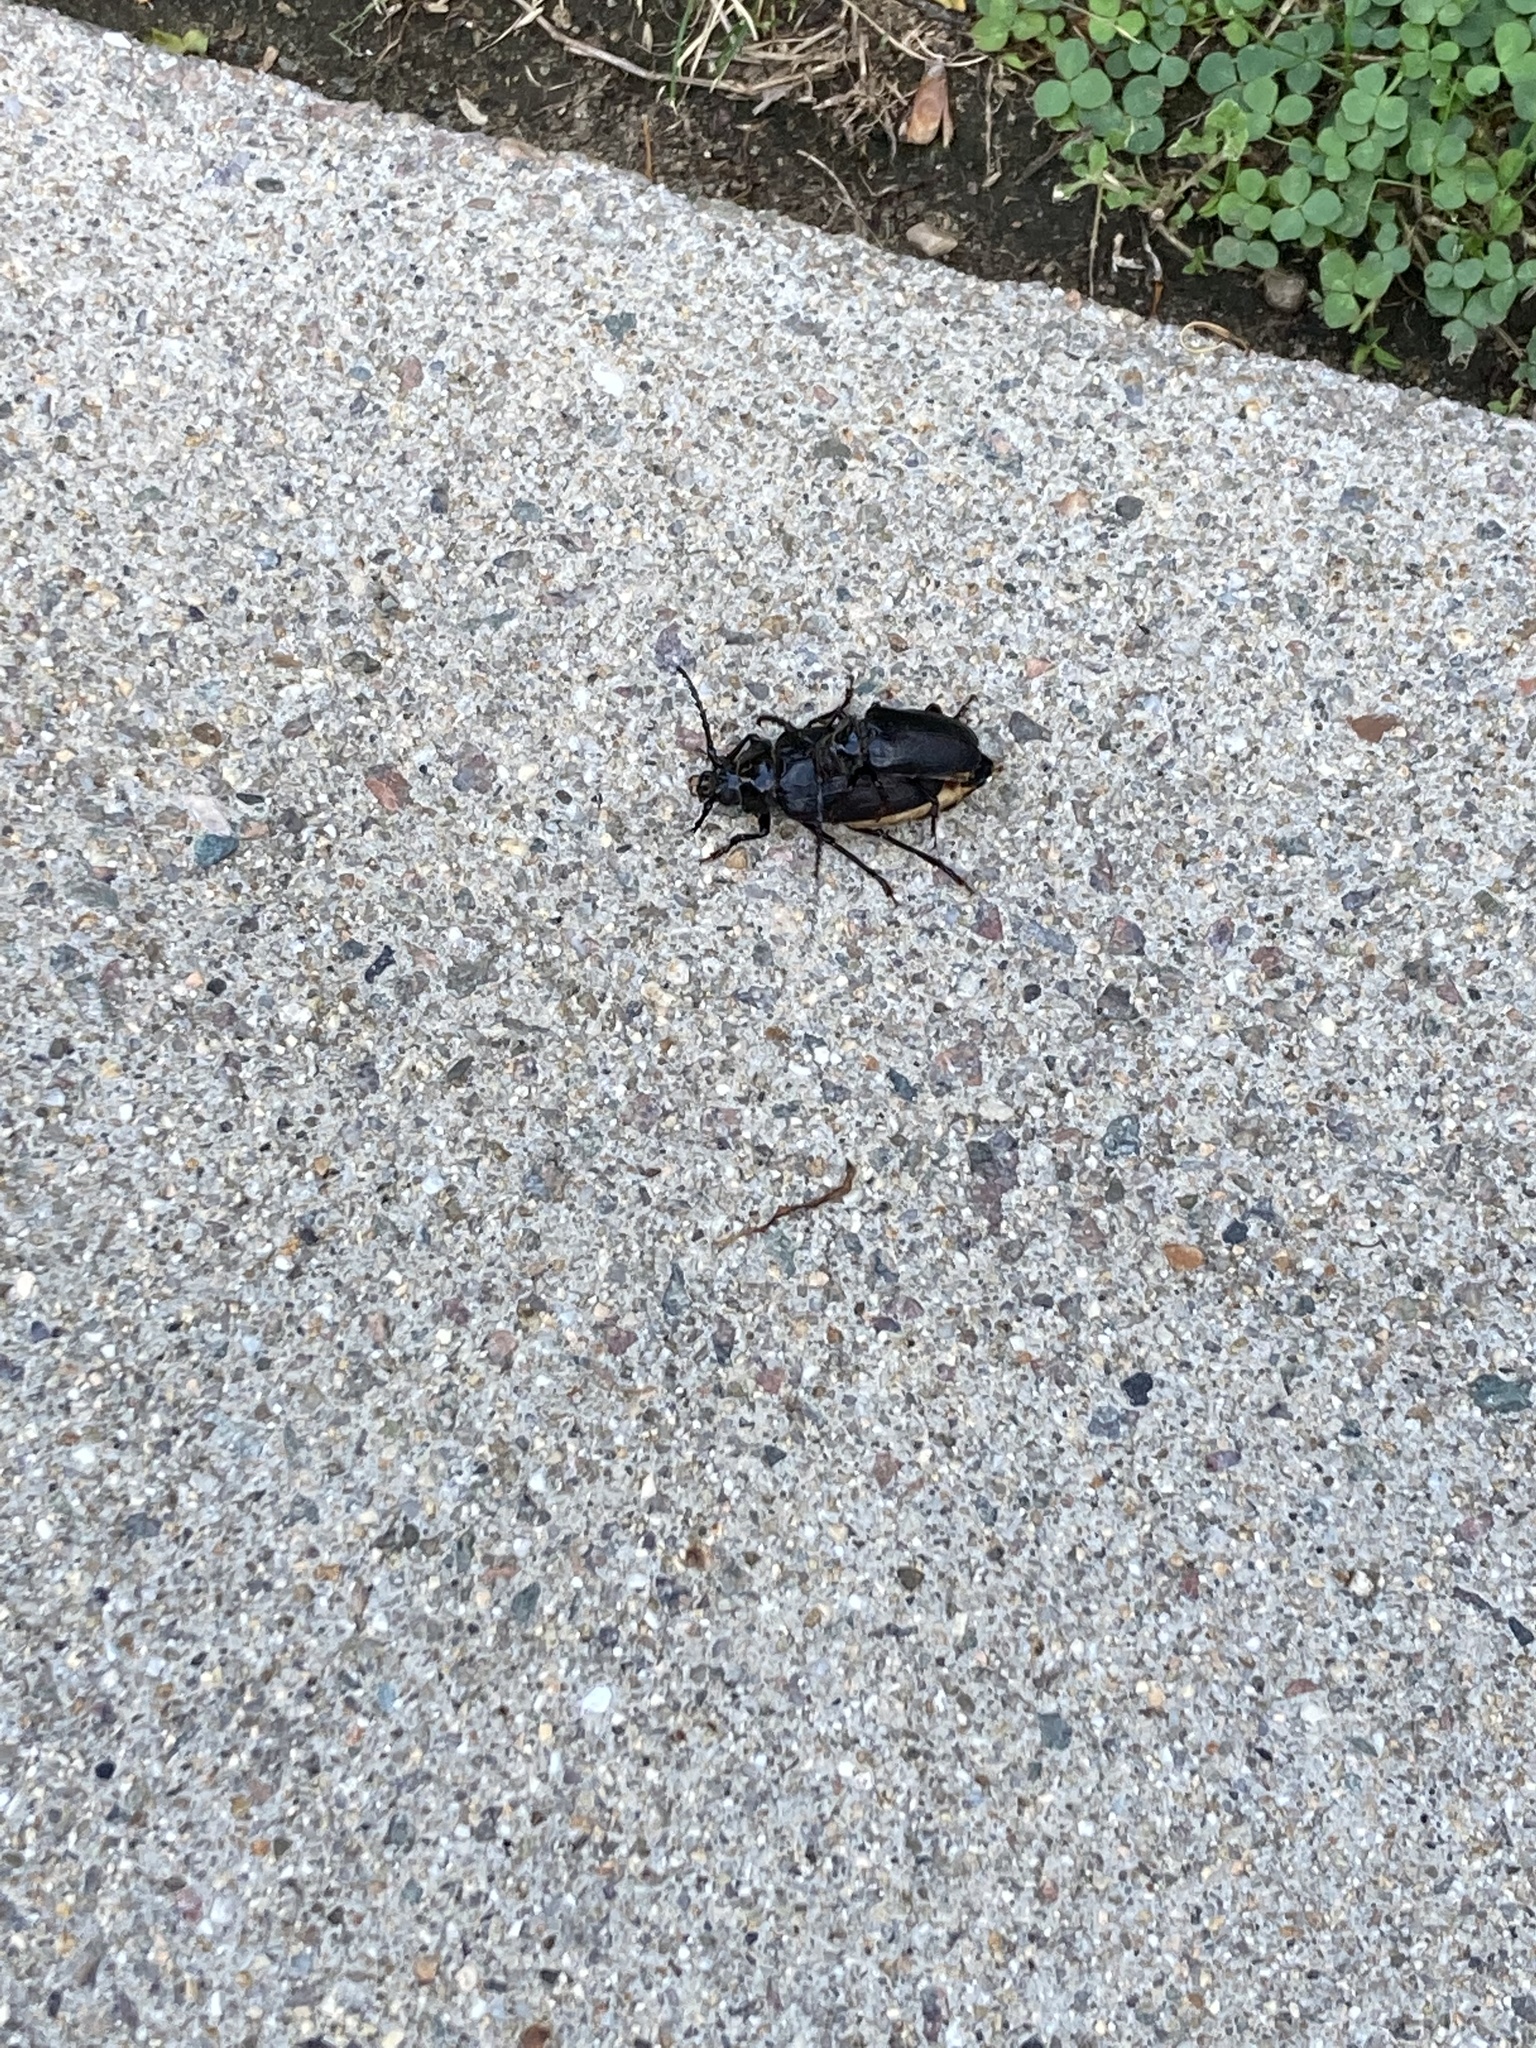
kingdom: Animalia
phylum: Arthropoda
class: Insecta
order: Coleoptera
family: Cerambycidae
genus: Prionus
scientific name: Prionus laticollis
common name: Broad necked prionus
